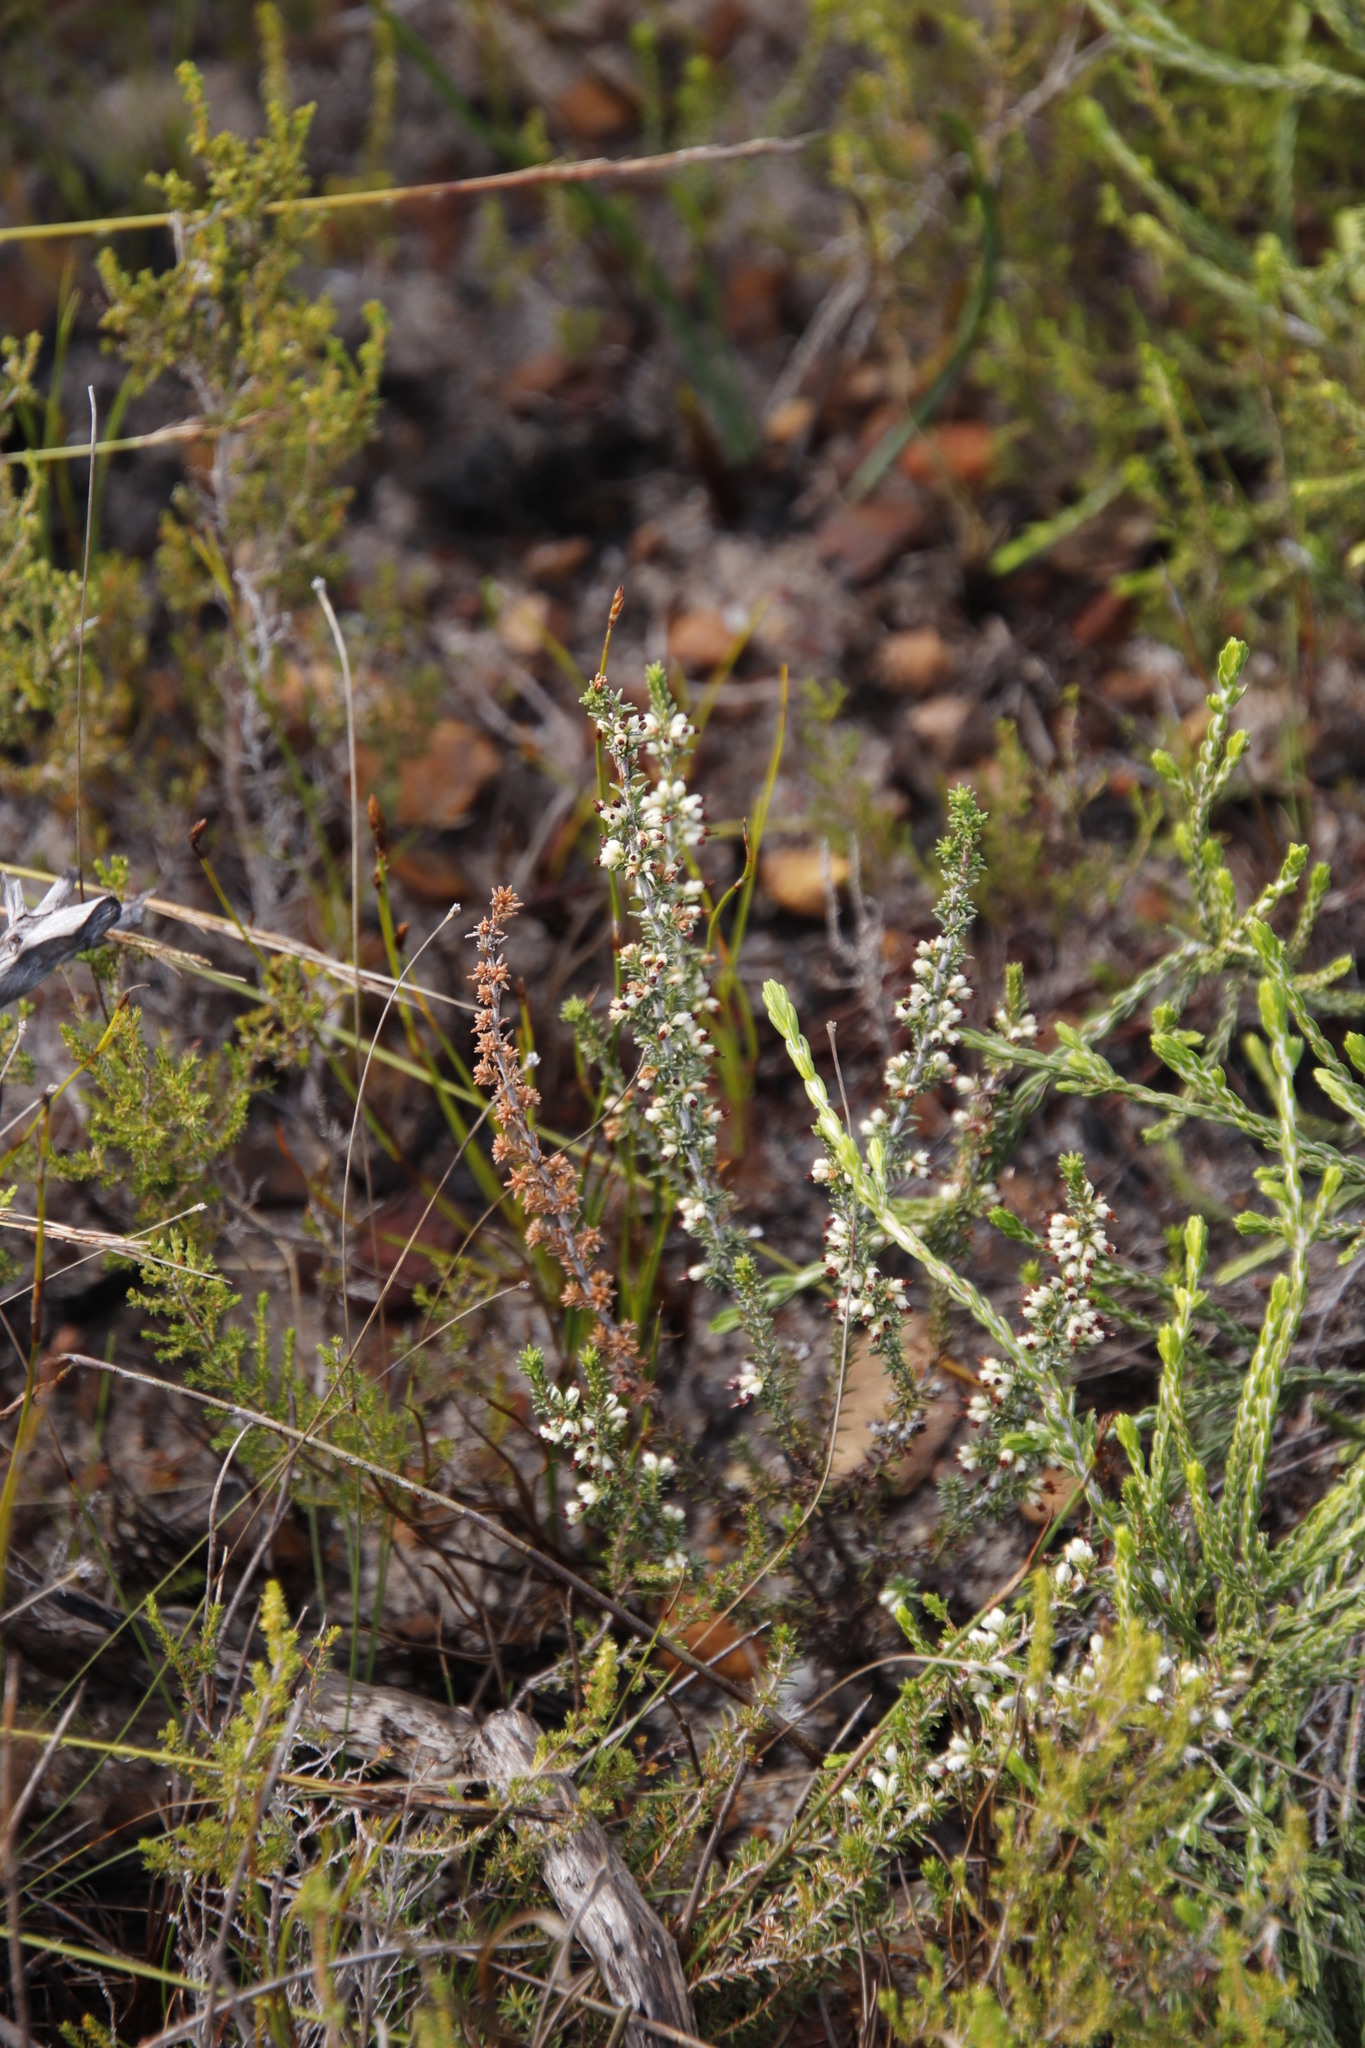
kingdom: Plantae
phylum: Tracheophyta
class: Magnoliopsida
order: Ericales
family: Ericaceae
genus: Erica
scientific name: Erica lasciva
